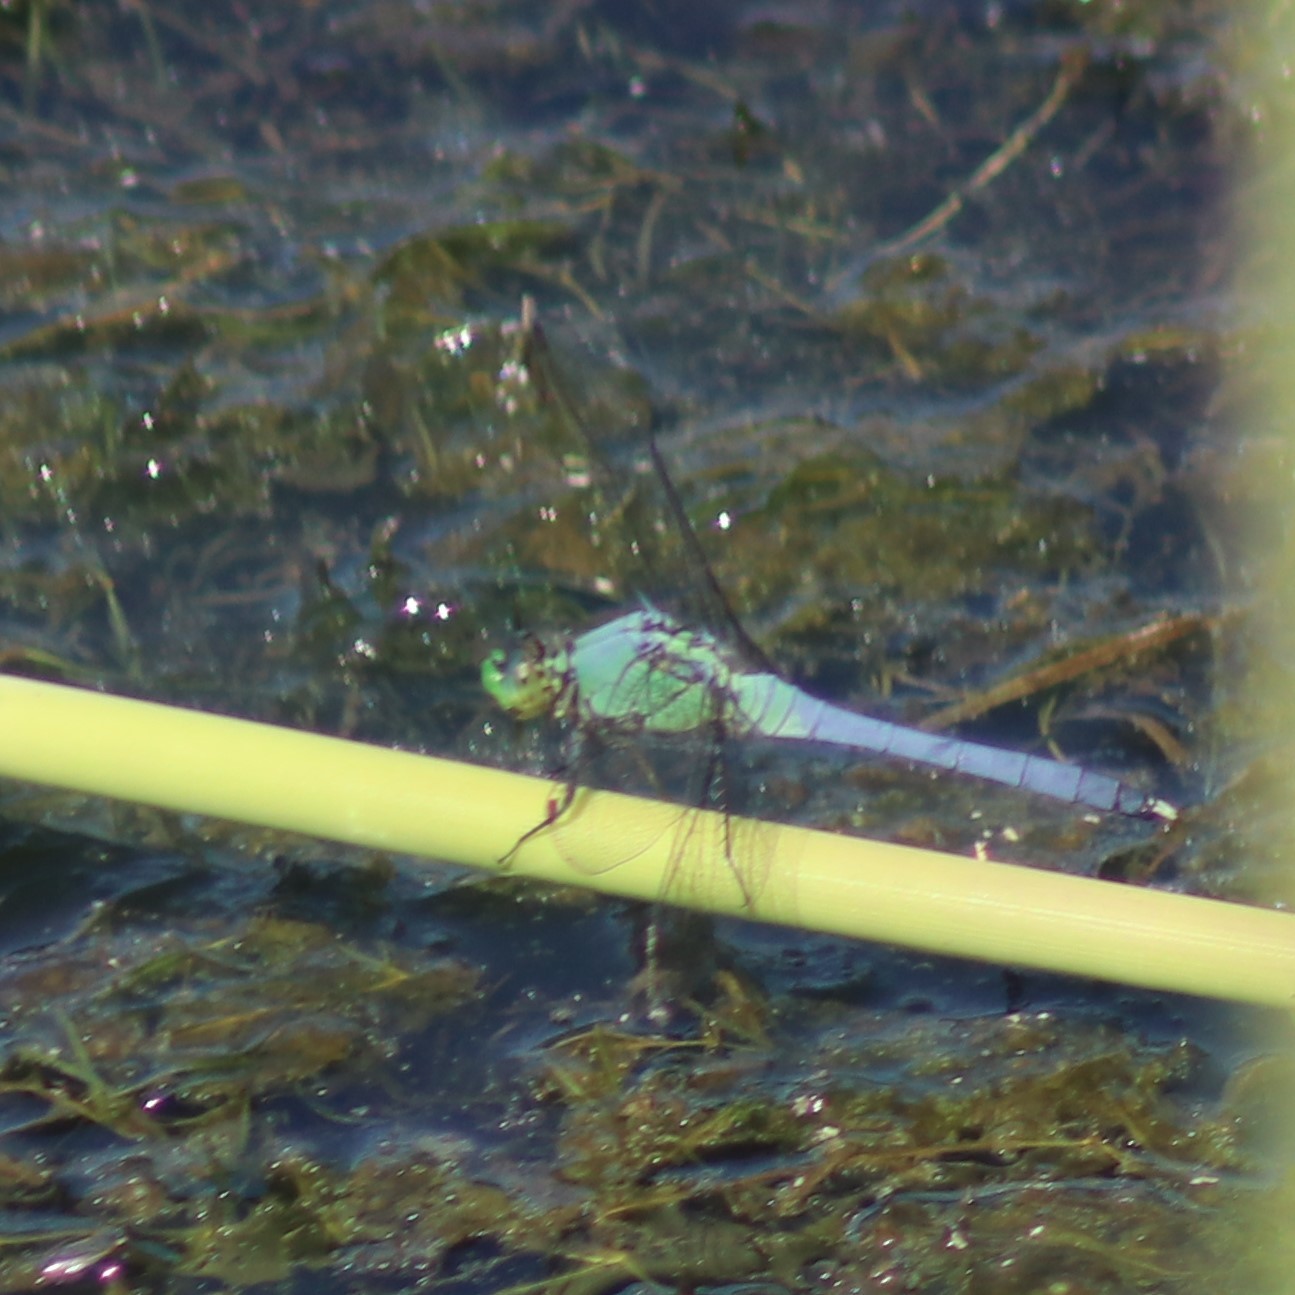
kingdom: Animalia
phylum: Arthropoda
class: Insecta
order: Odonata
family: Libellulidae
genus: Erythemis
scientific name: Erythemis simplicicollis
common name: Eastern pondhawk
